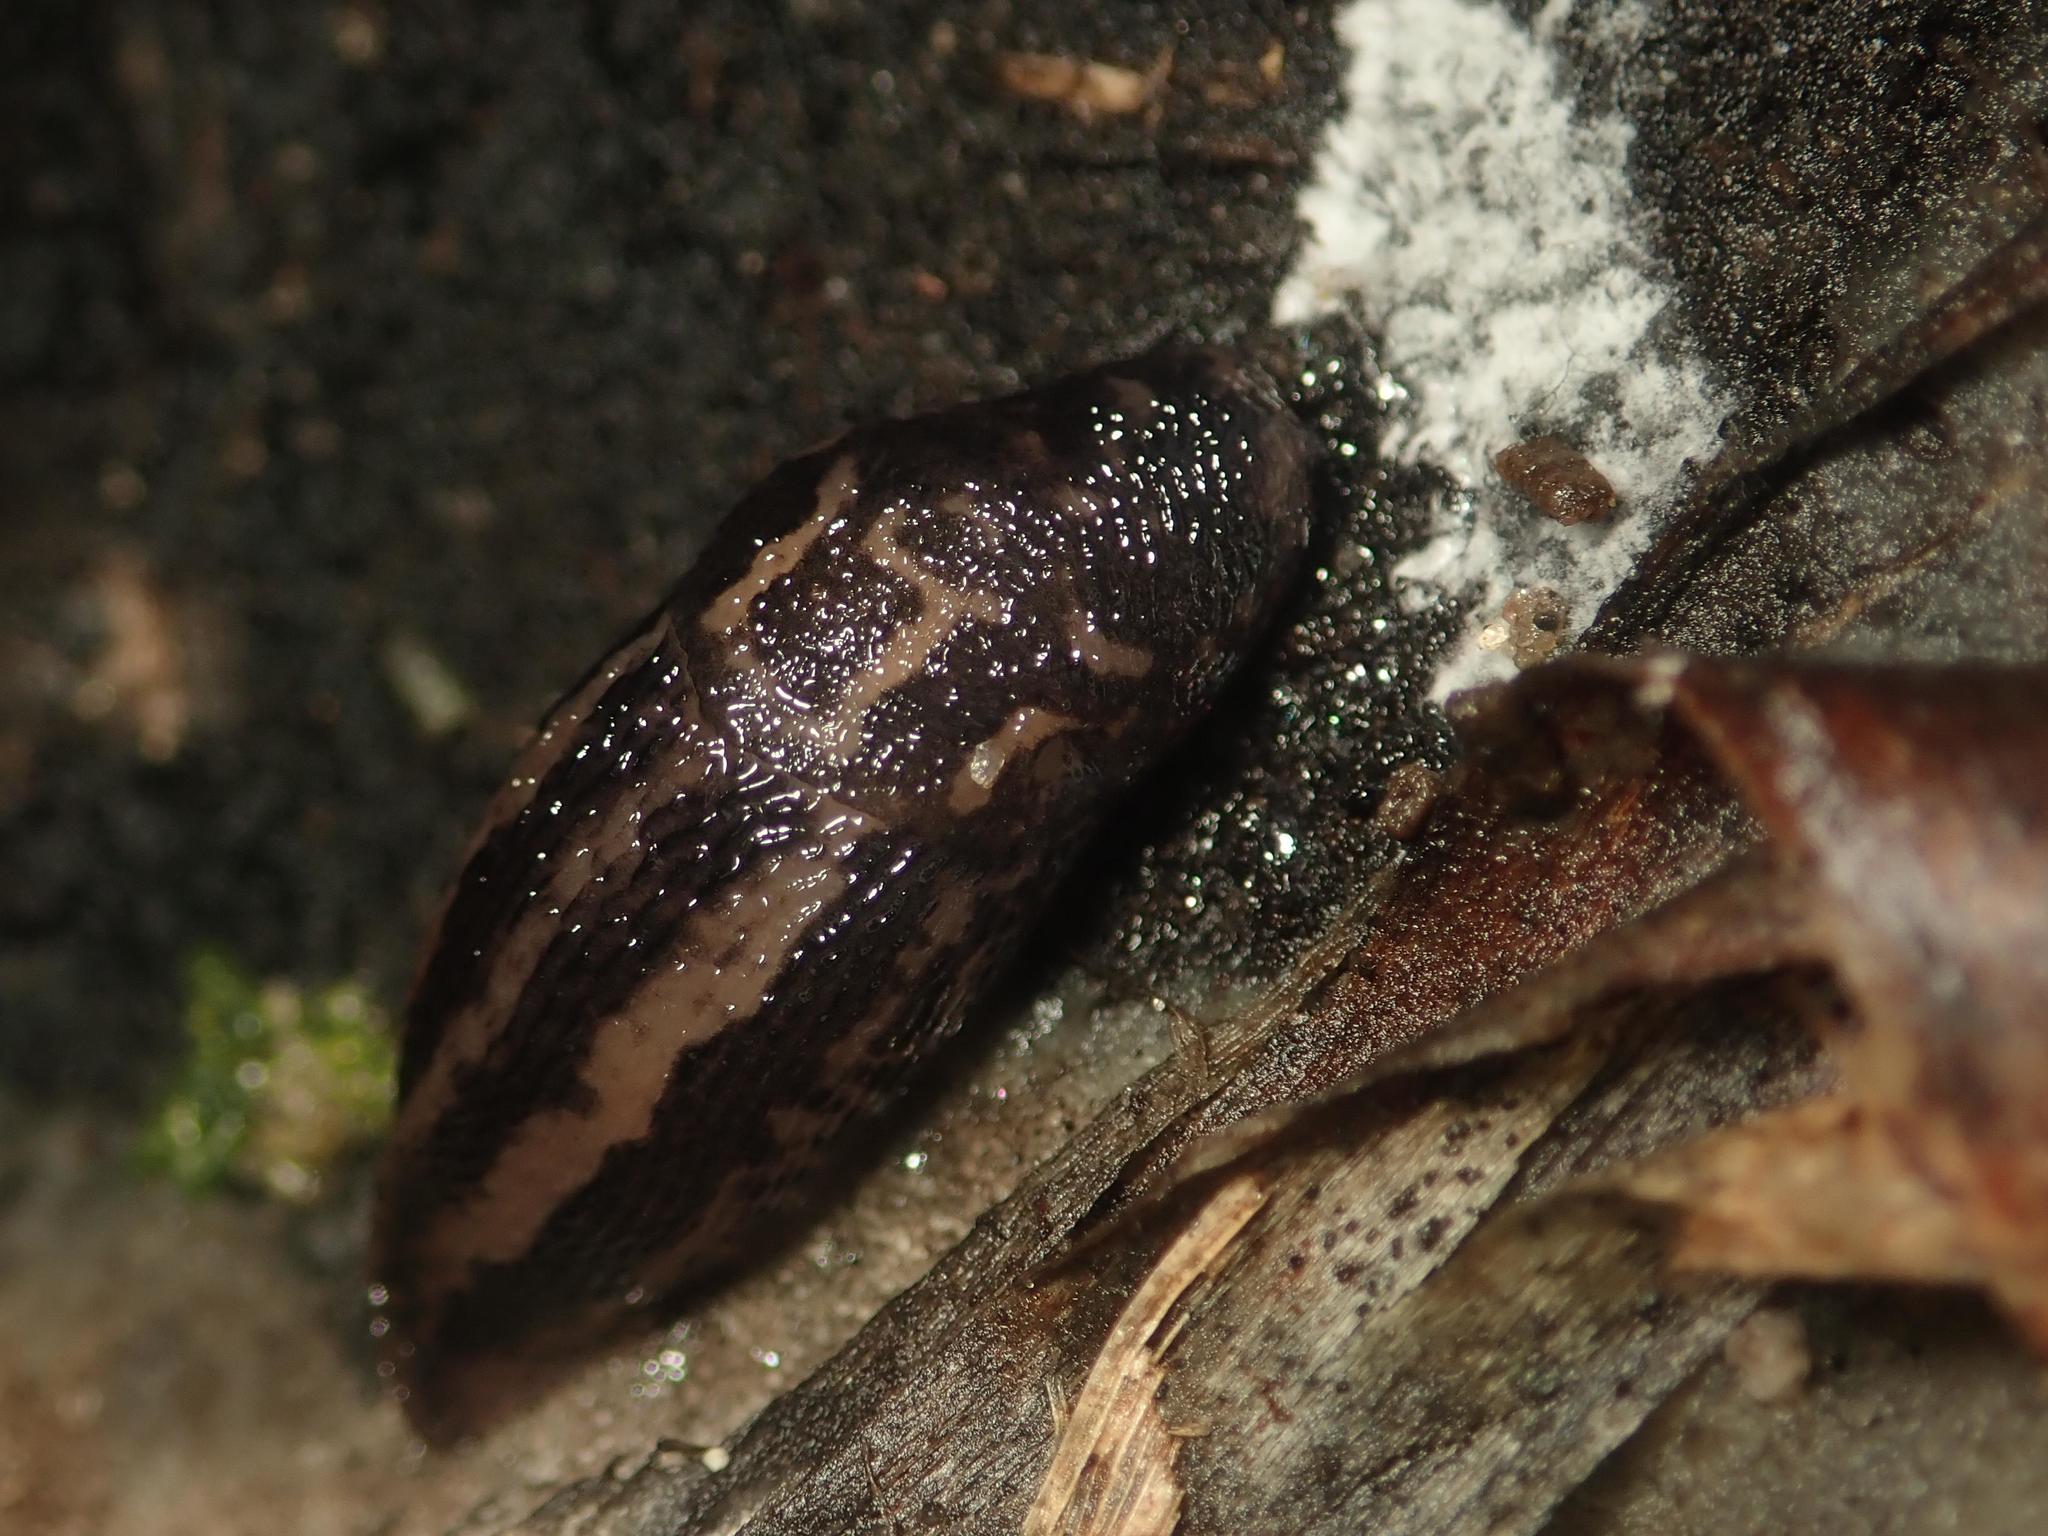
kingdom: Animalia
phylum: Mollusca
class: Gastropoda
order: Stylommatophora
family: Limacidae
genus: Limax
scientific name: Limax maximus
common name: Great grey slug
